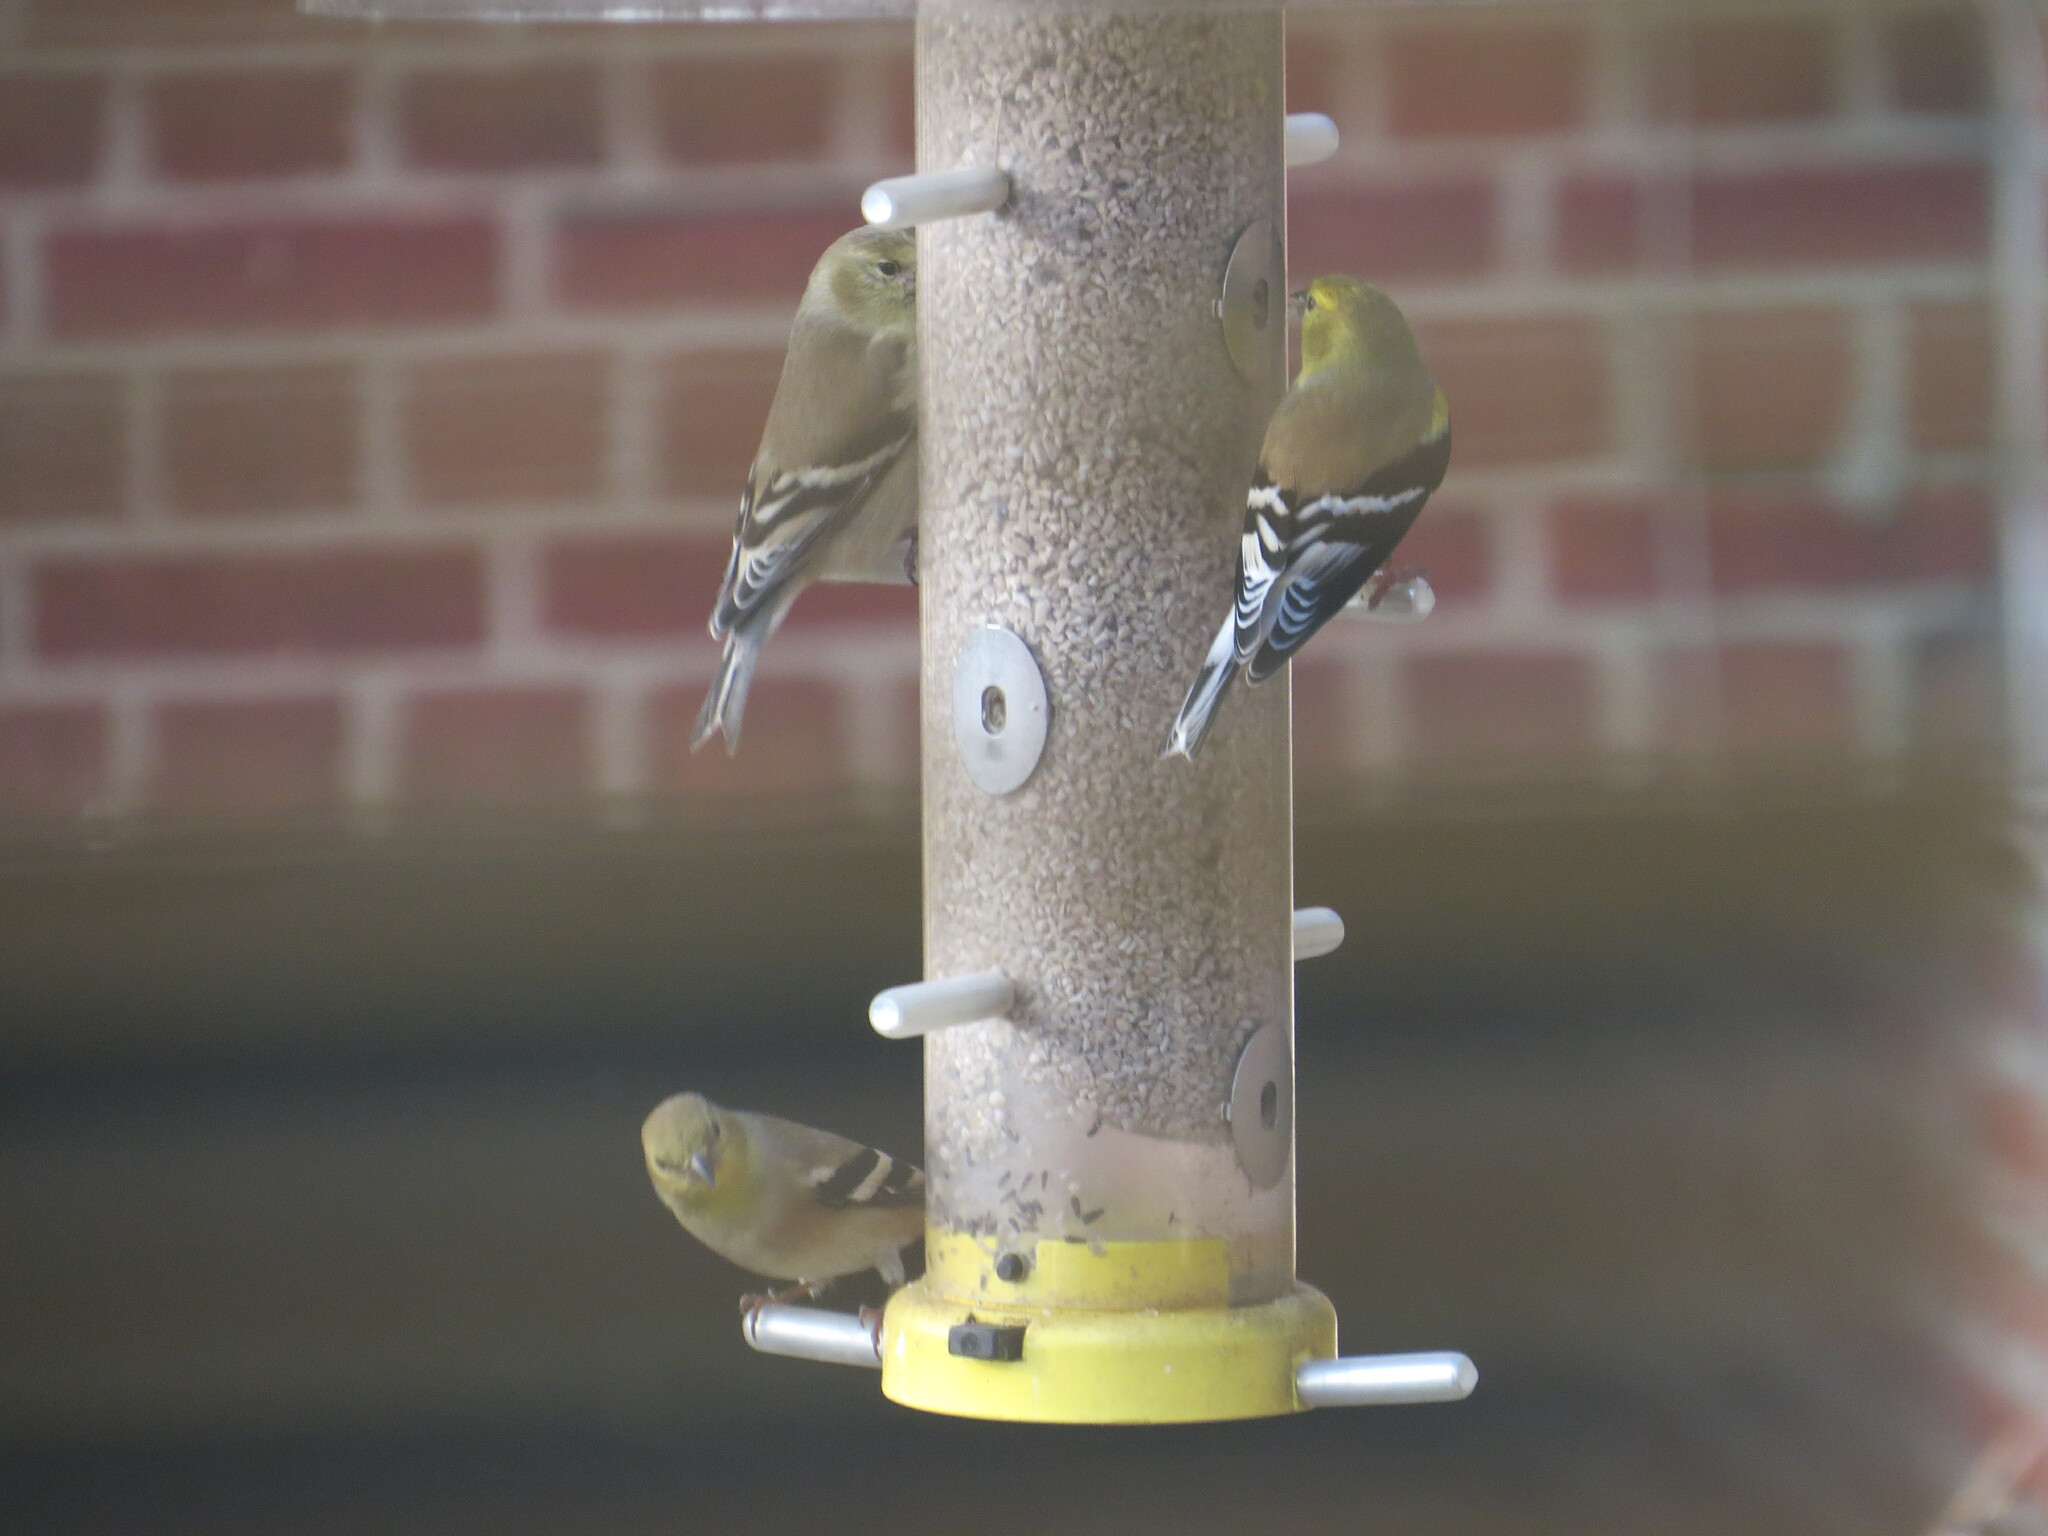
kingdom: Animalia
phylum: Chordata
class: Aves
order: Passeriformes
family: Fringillidae
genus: Spinus
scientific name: Spinus tristis
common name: American goldfinch
